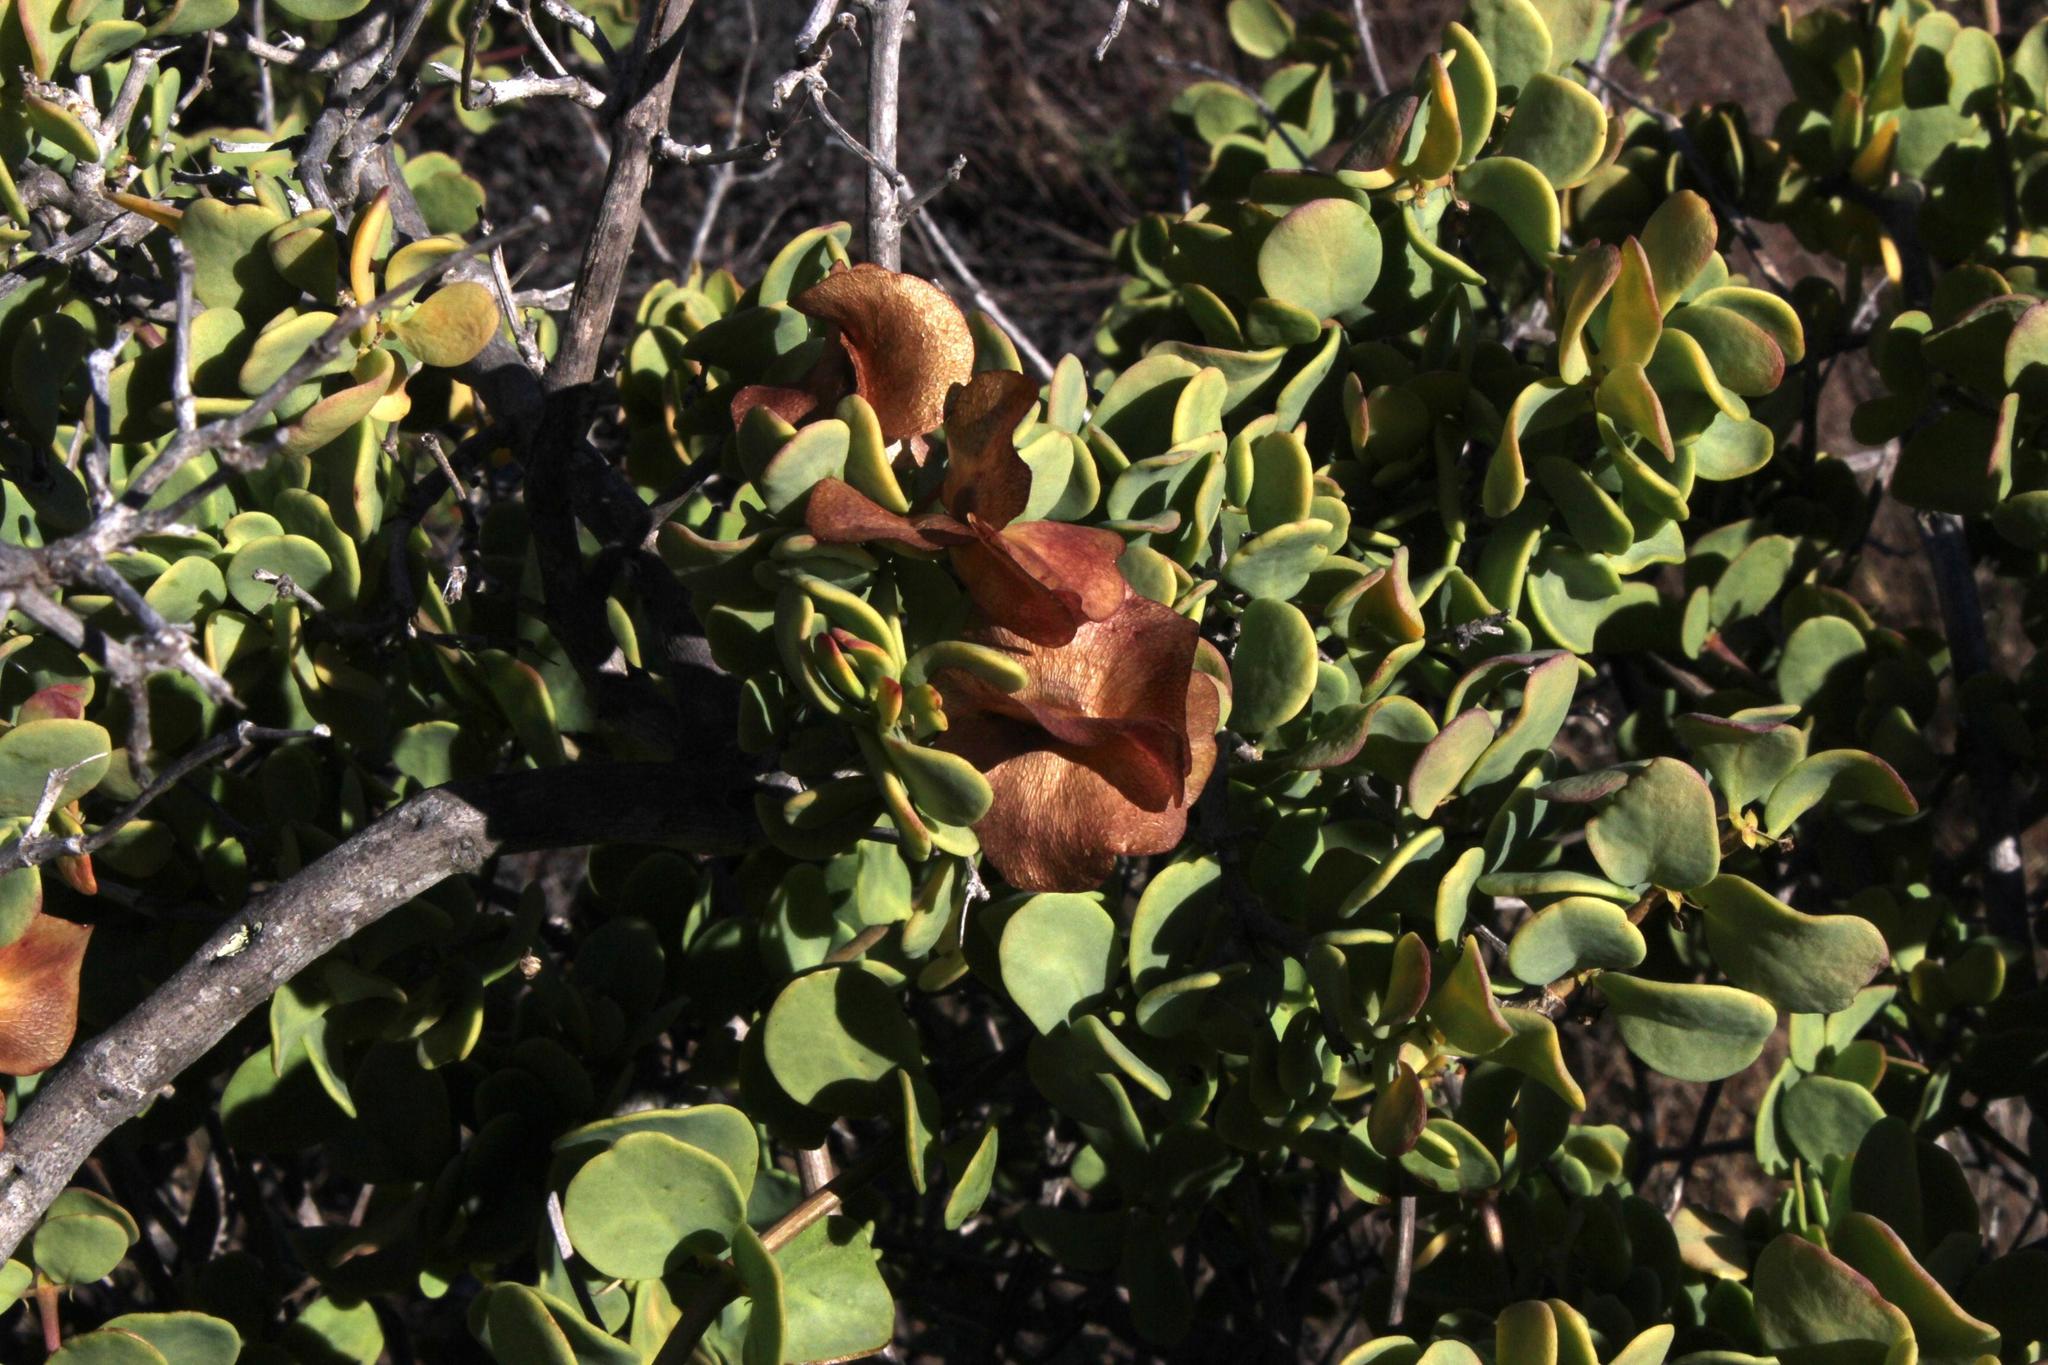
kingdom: Plantae
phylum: Tracheophyta
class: Magnoliopsida
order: Zygophyllales
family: Zygophyllaceae
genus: Roepera
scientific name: Roepera morgsana
